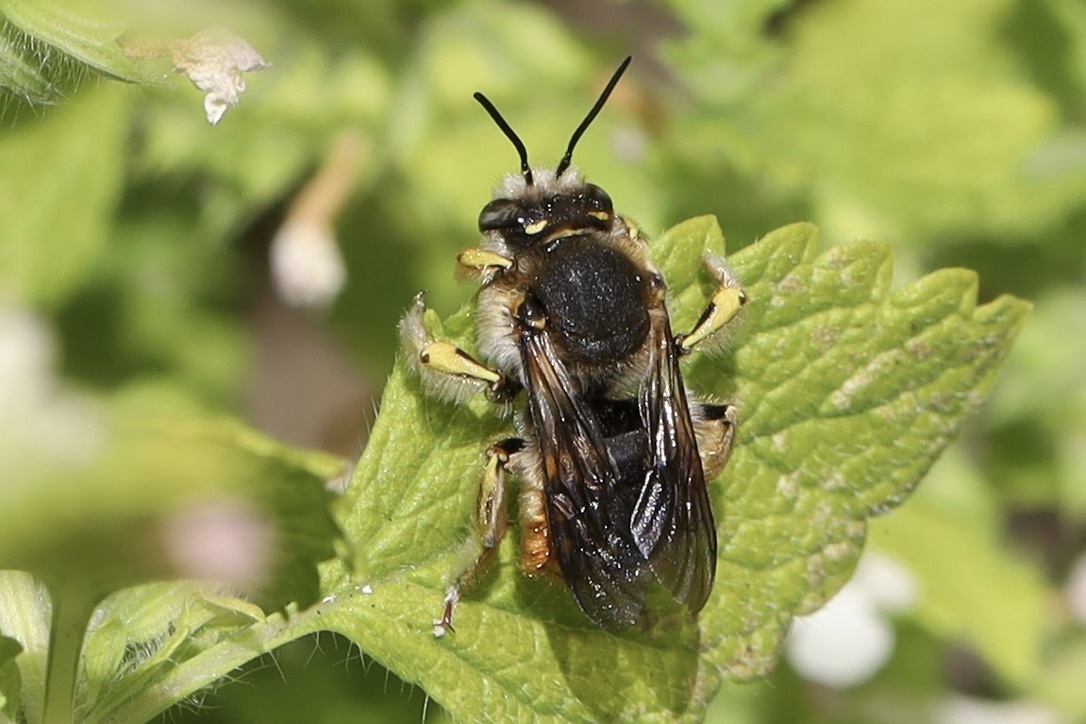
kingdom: Animalia
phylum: Arthropoda
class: Insecta
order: Hymenoptera
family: Megachilidae
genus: Anthidium
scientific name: Anthidium manicatum
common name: Wool carder bee
